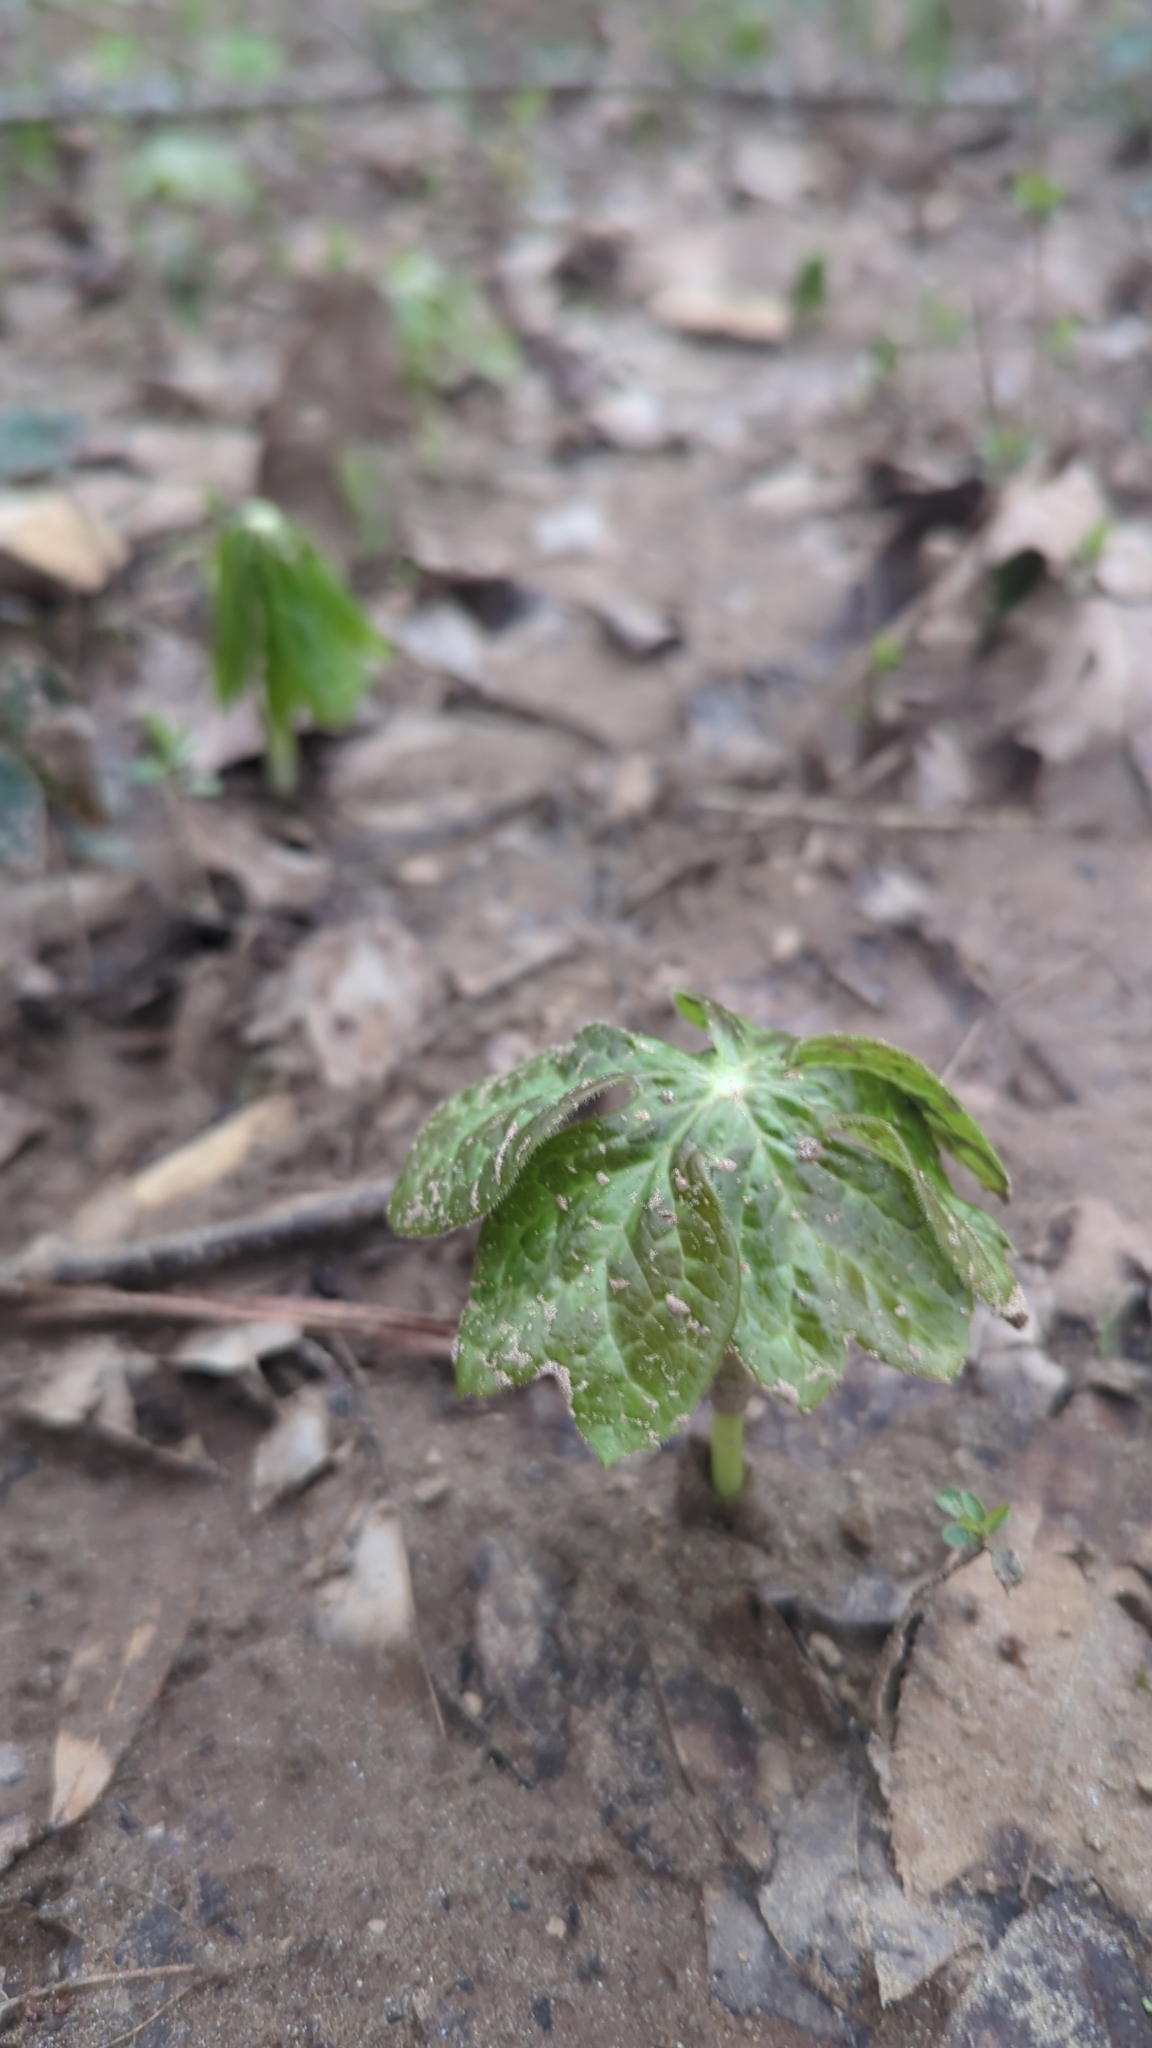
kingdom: Plantae
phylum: Tracheophyta
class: Magnoliopsida
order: Ranunculales
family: Berberidaceae
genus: Podophyllum
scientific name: Podophyllum peltatum
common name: Wild mandrake
